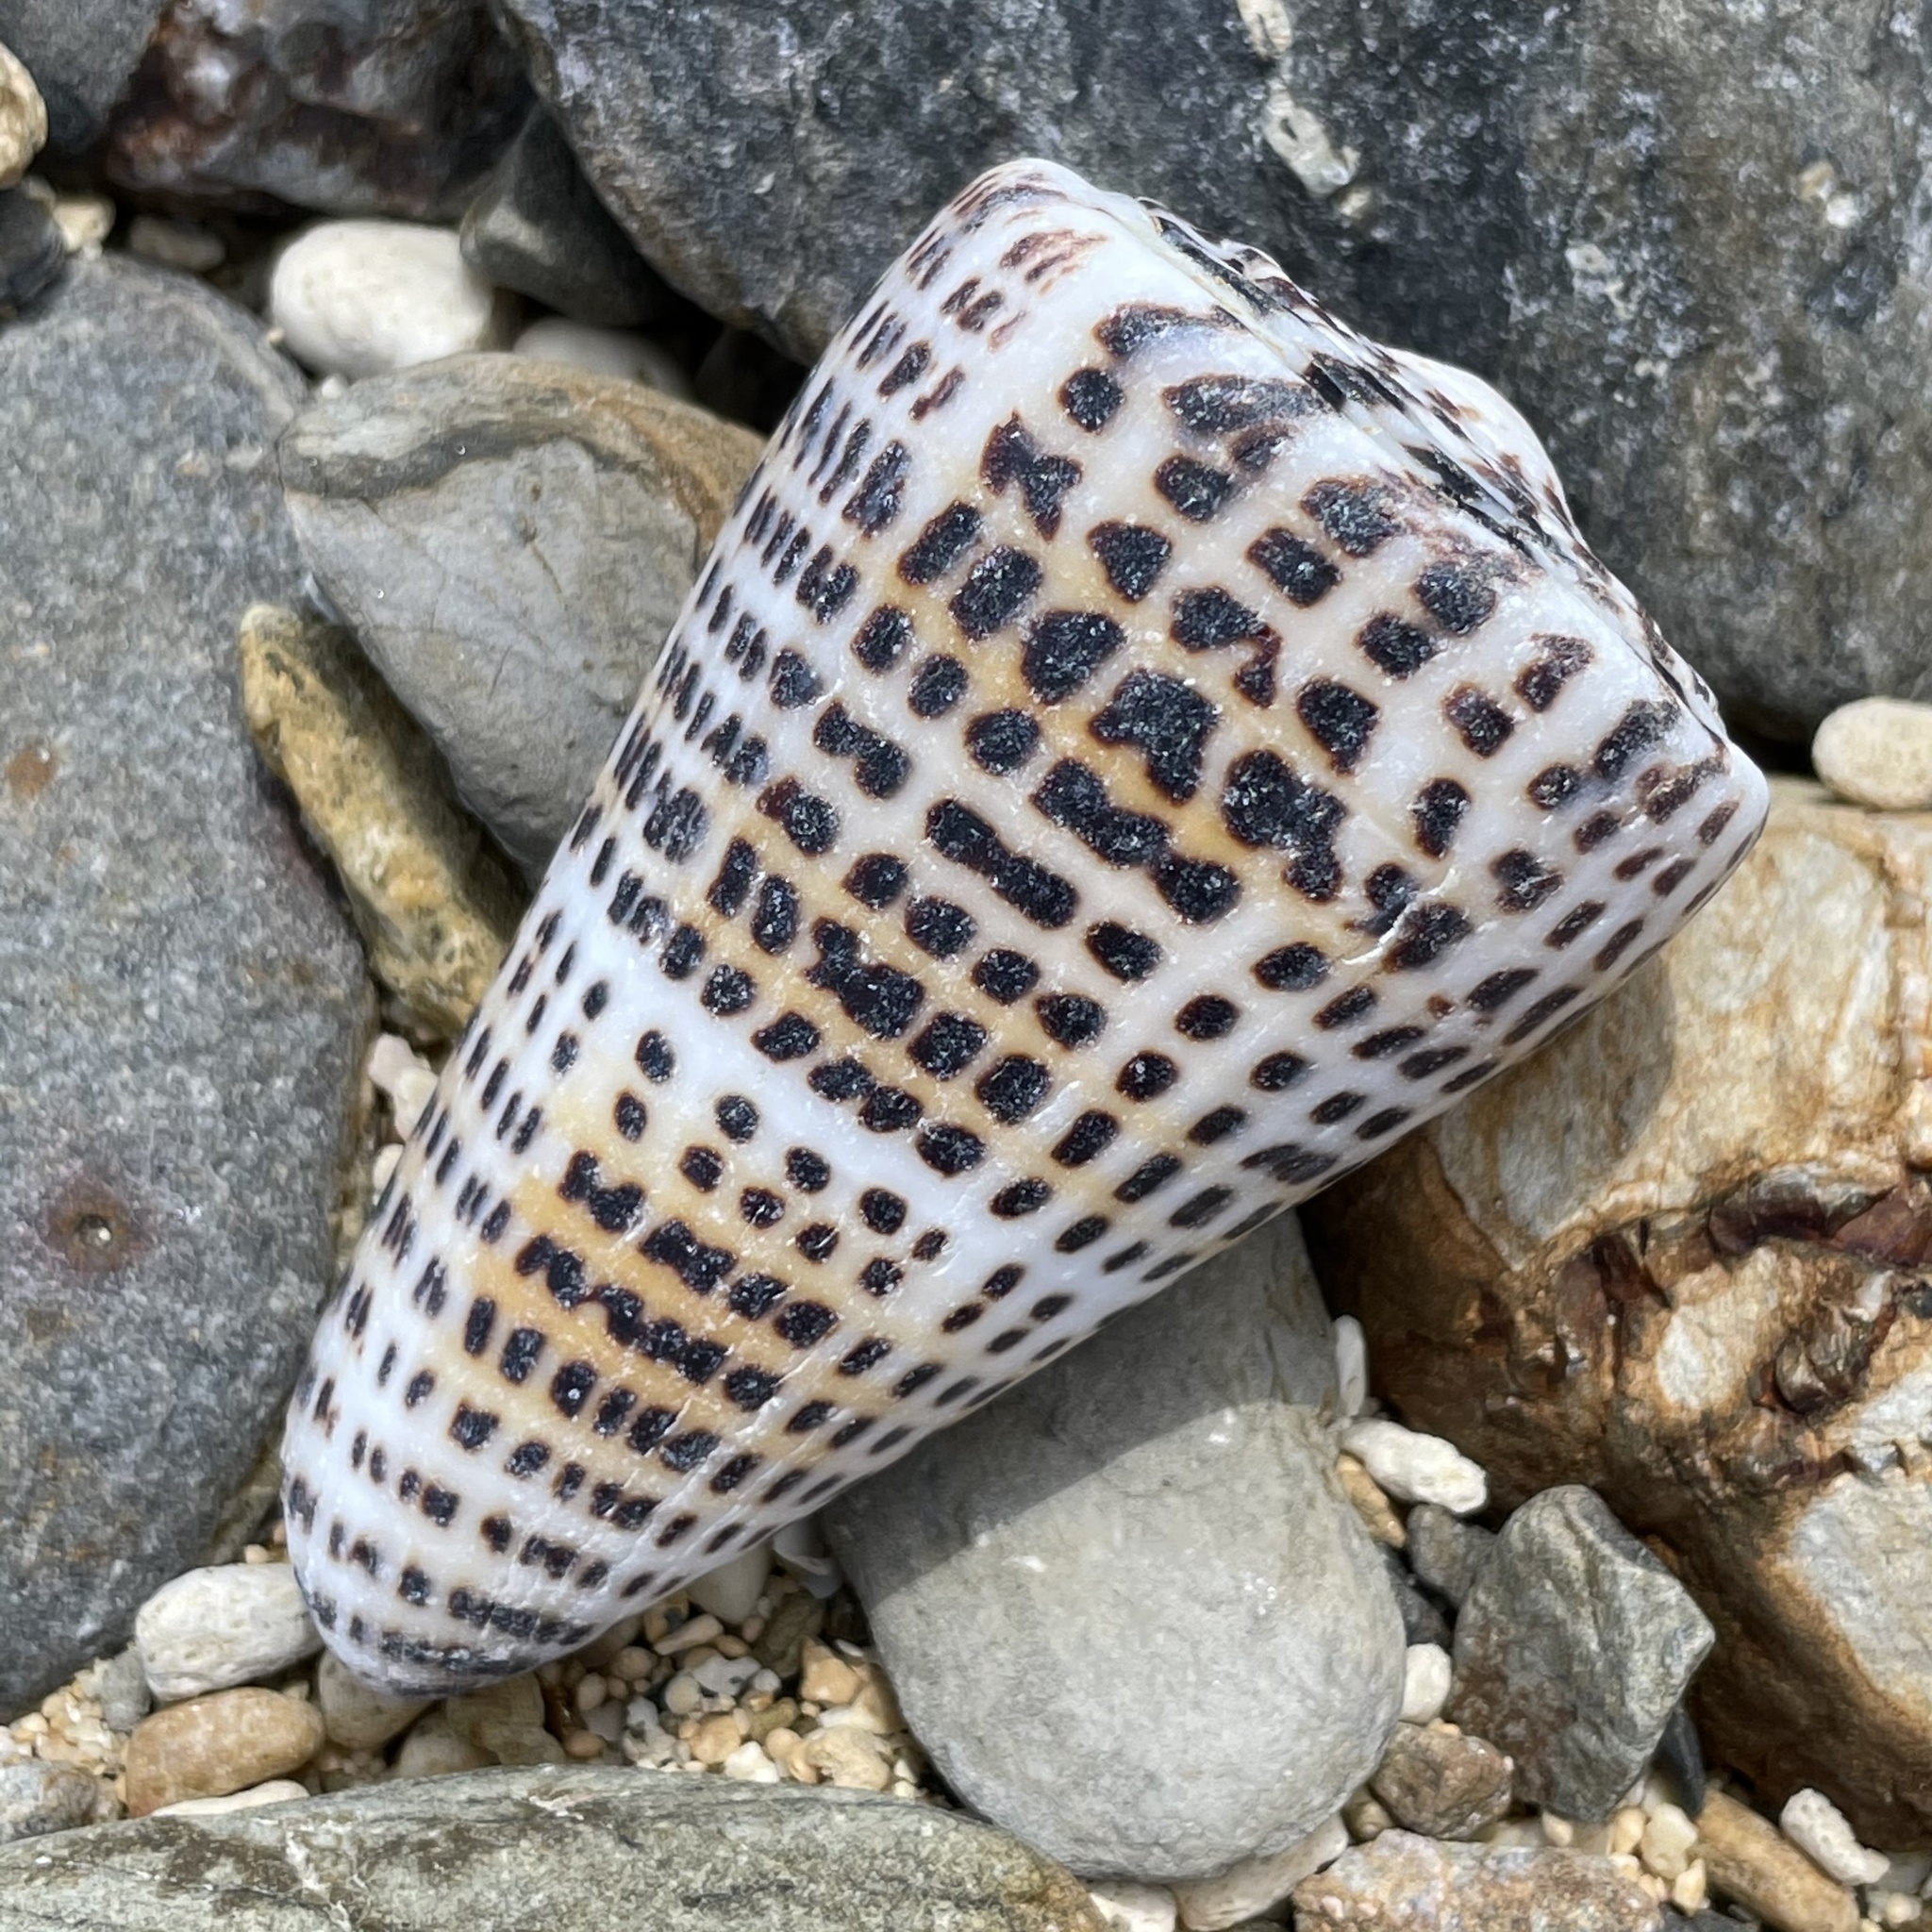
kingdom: Animalia
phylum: Mollusca
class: Gastropoda
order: Neogastropoda
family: Conidae
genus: Conus
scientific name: Conus litteratus
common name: Lettered cone
